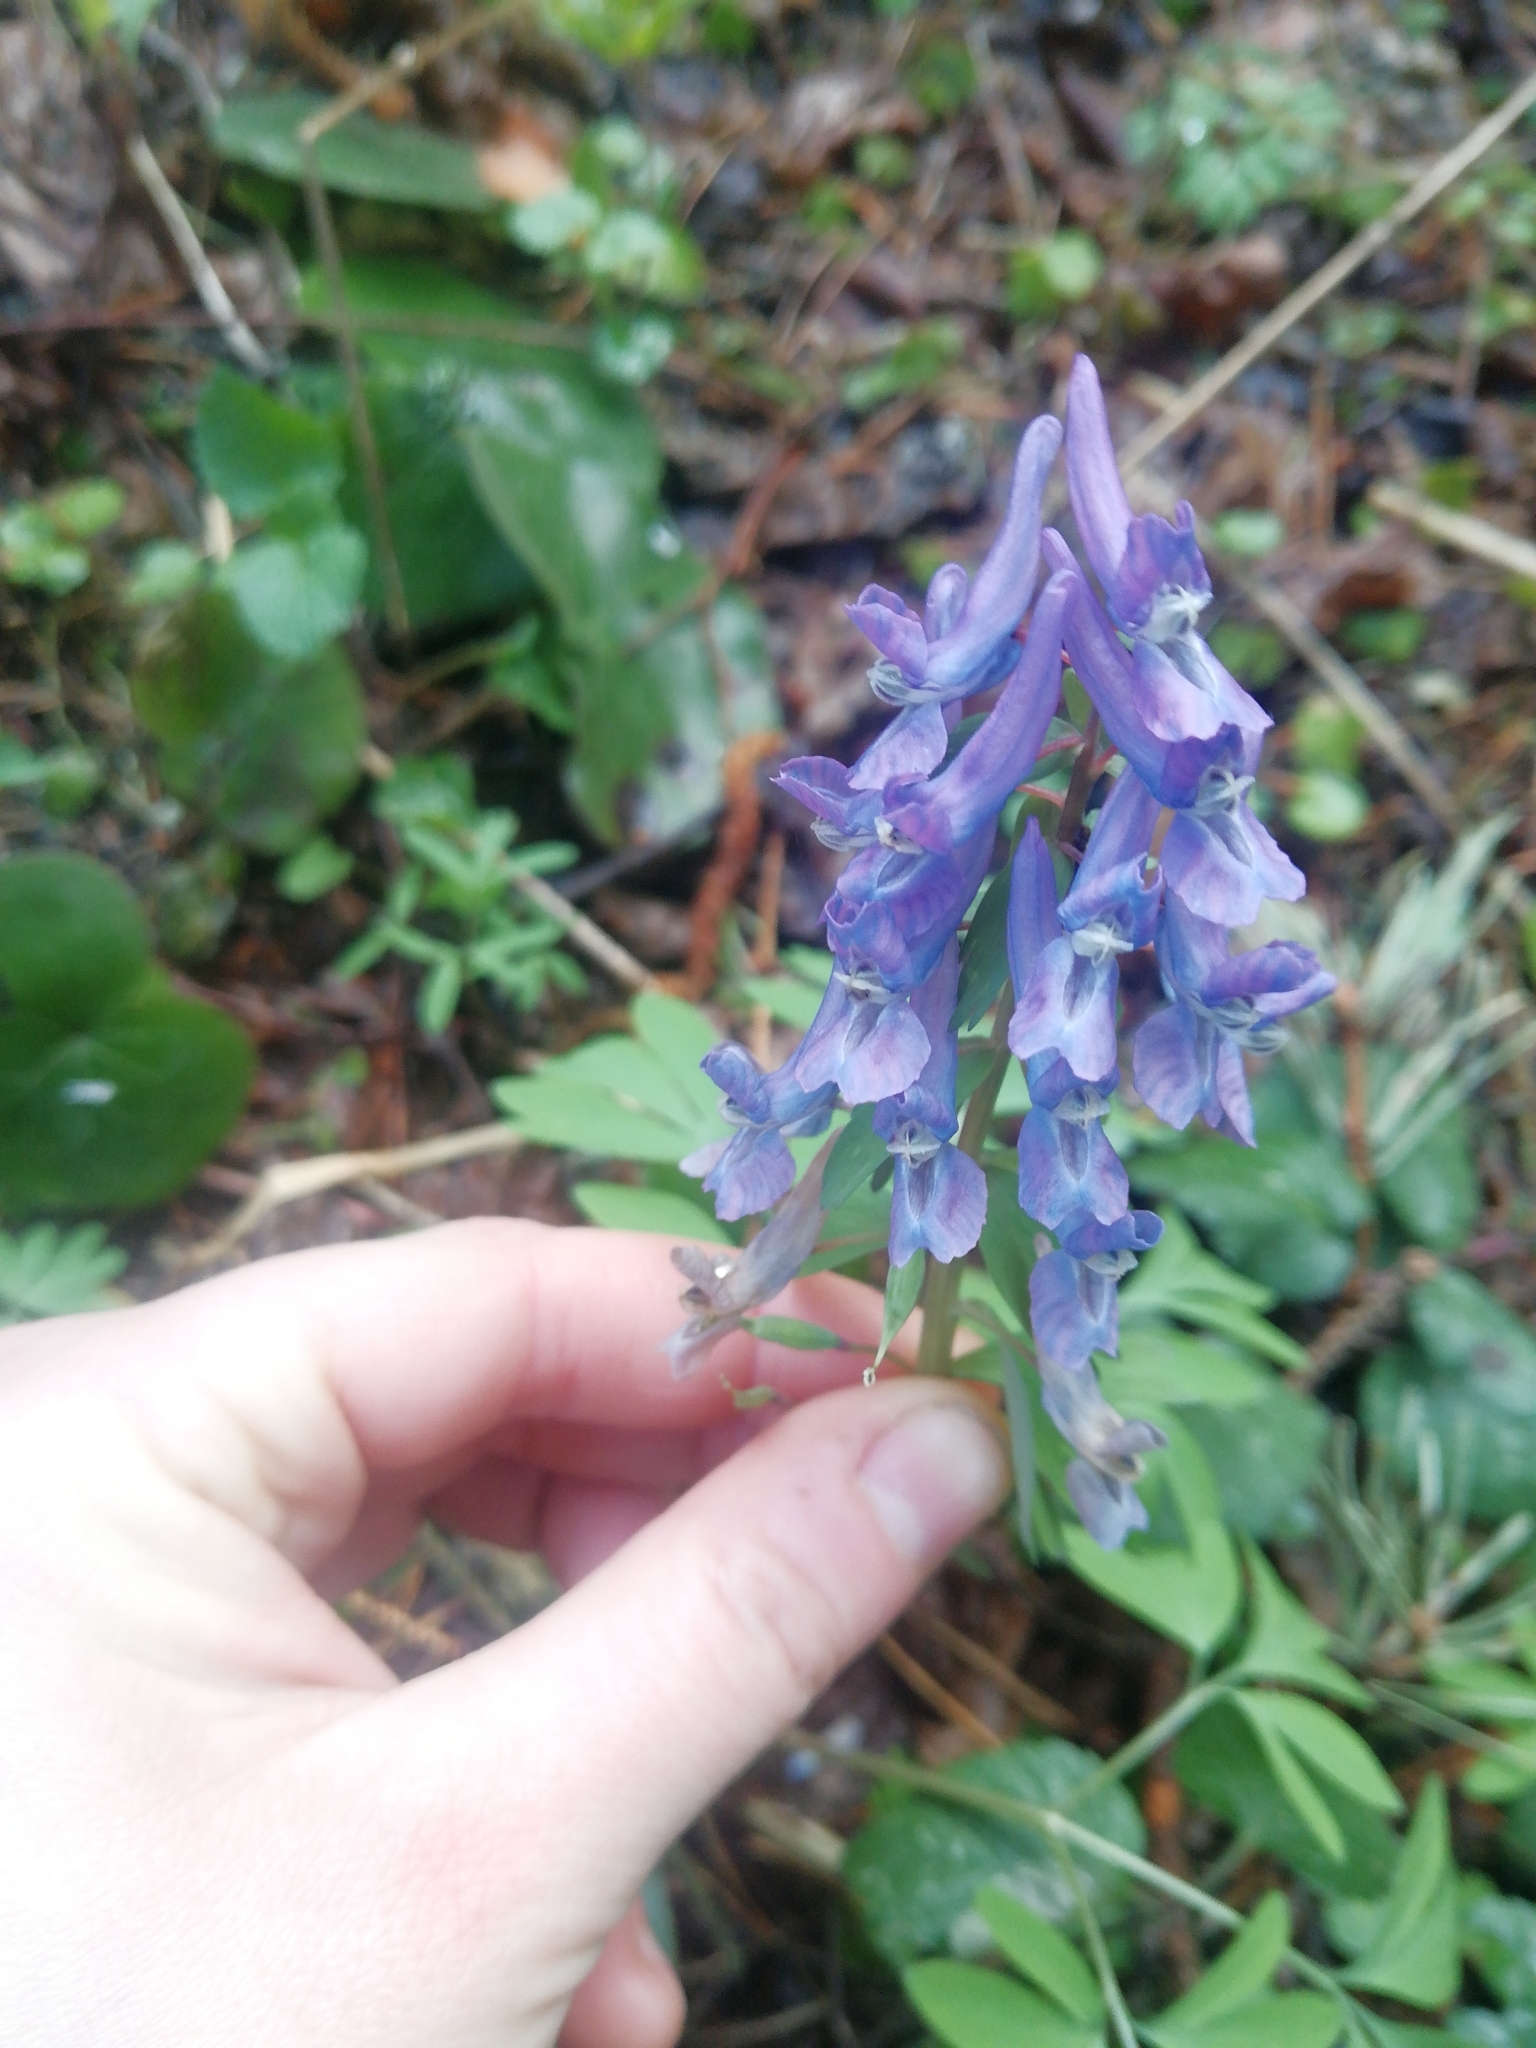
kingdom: Plantae
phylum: Tracheophyta
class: Magnoliopsida
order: Ranunculales
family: Papaveraceae
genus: Corydalis
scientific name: Corydalis solida
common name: Bird-in-a-bush
